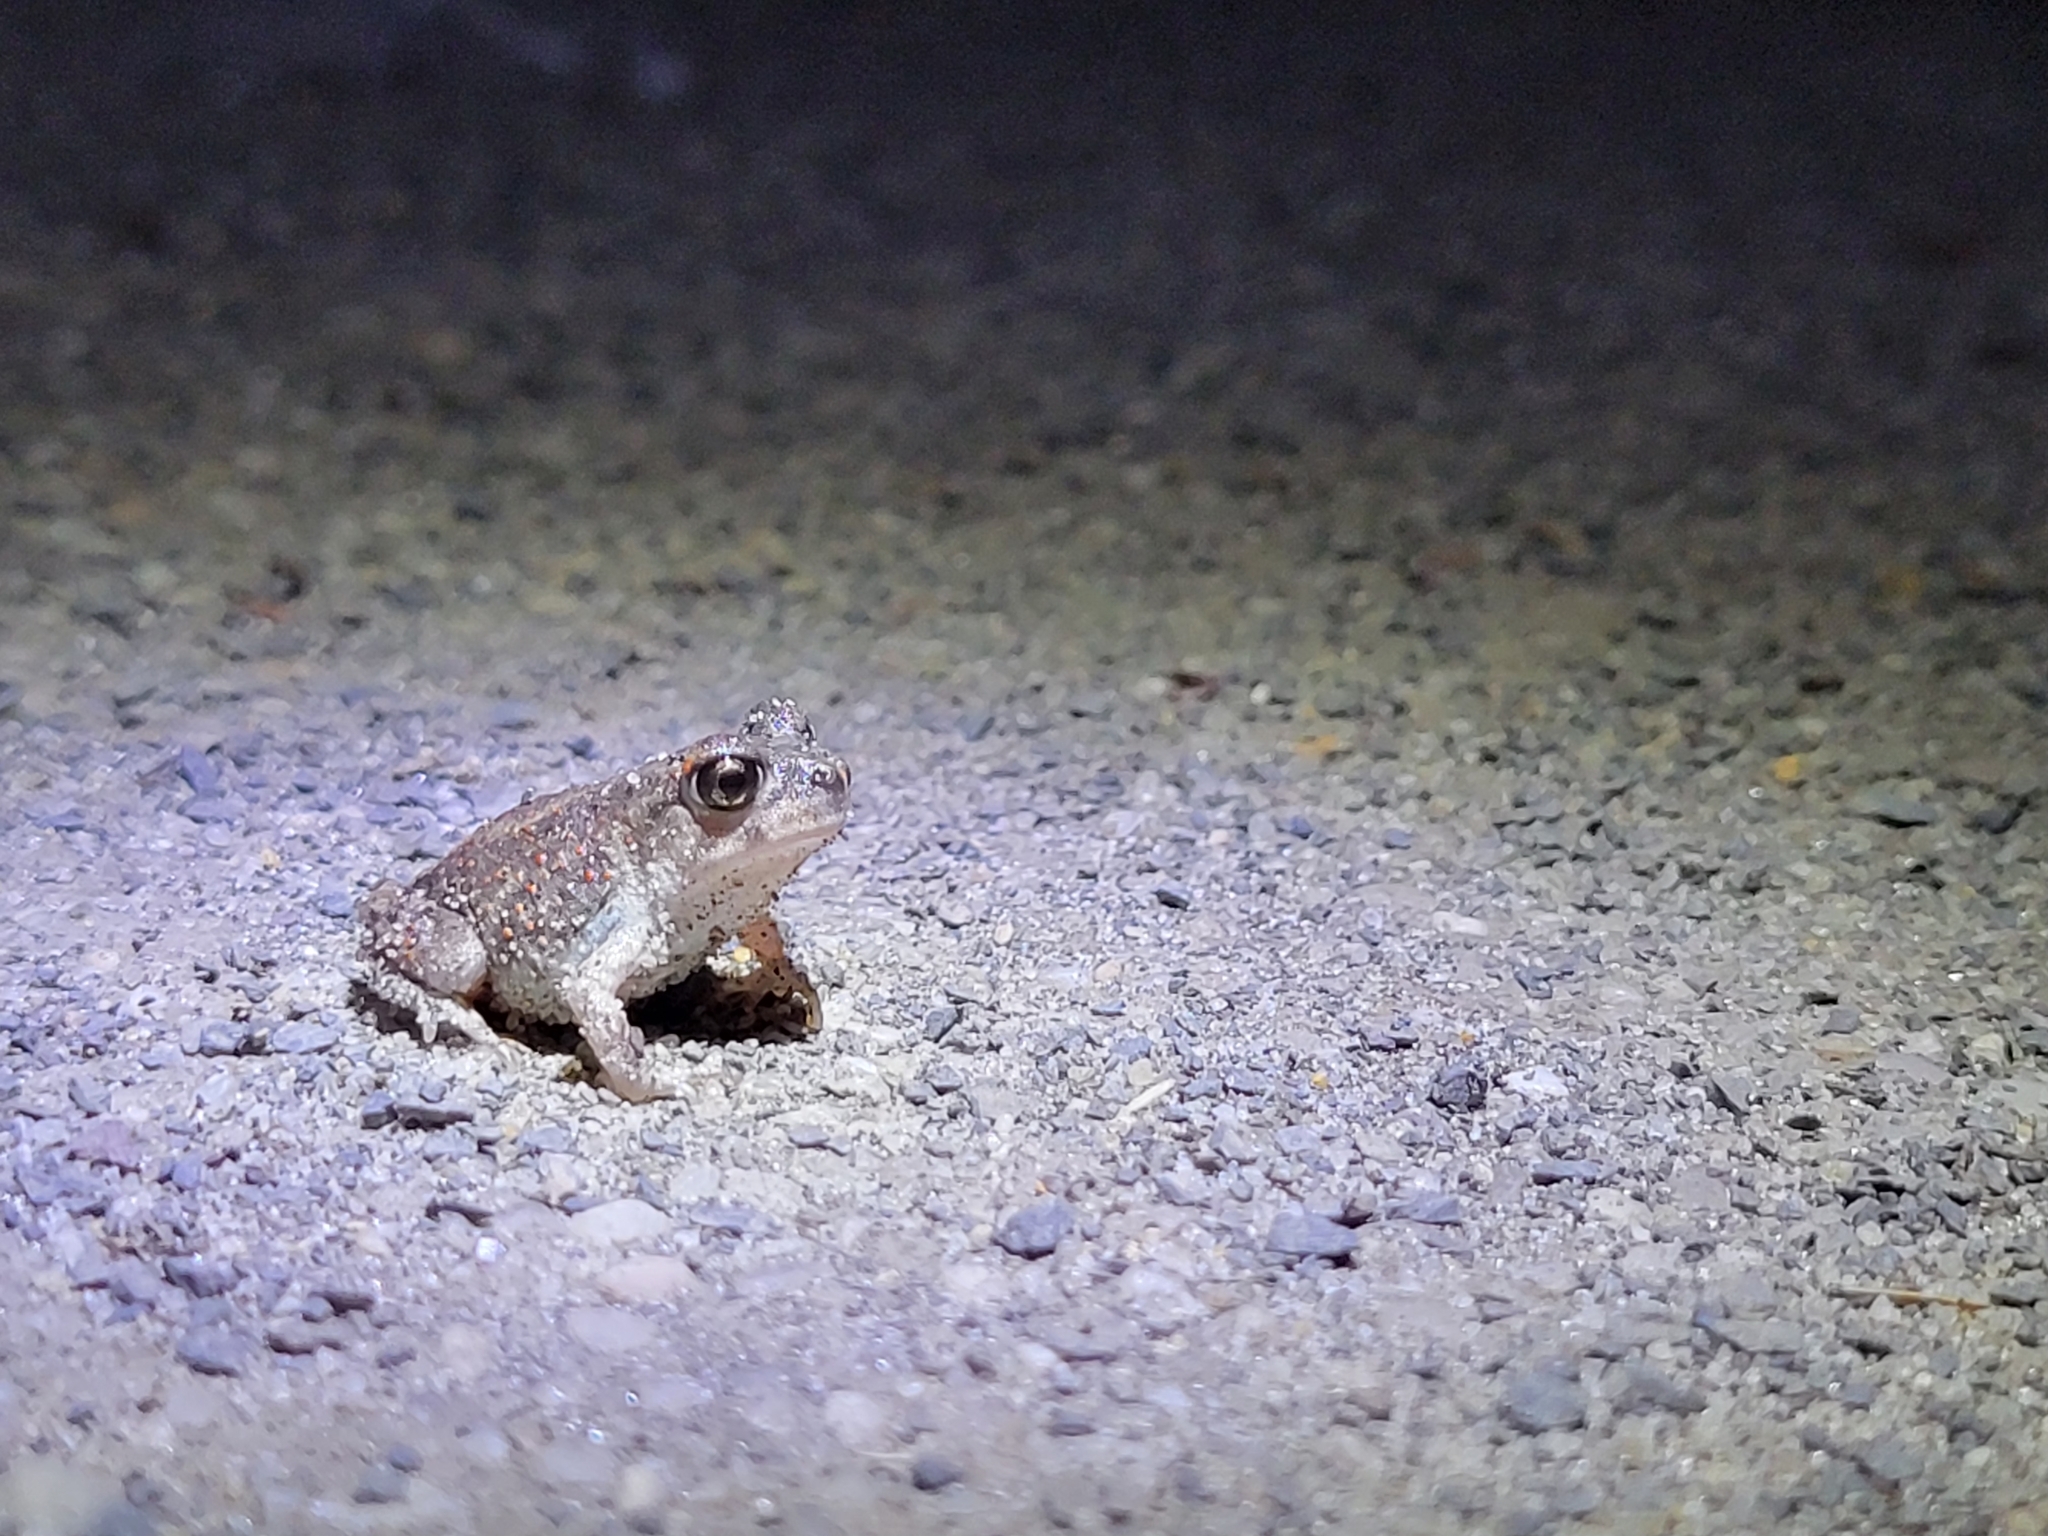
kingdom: Animalia
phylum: Chordata
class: Amphibia
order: Anura
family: Scaphiopodidae
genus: Scaphiopus
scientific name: Scaphiopus holbrookii
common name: Eastern spadefoot toad
